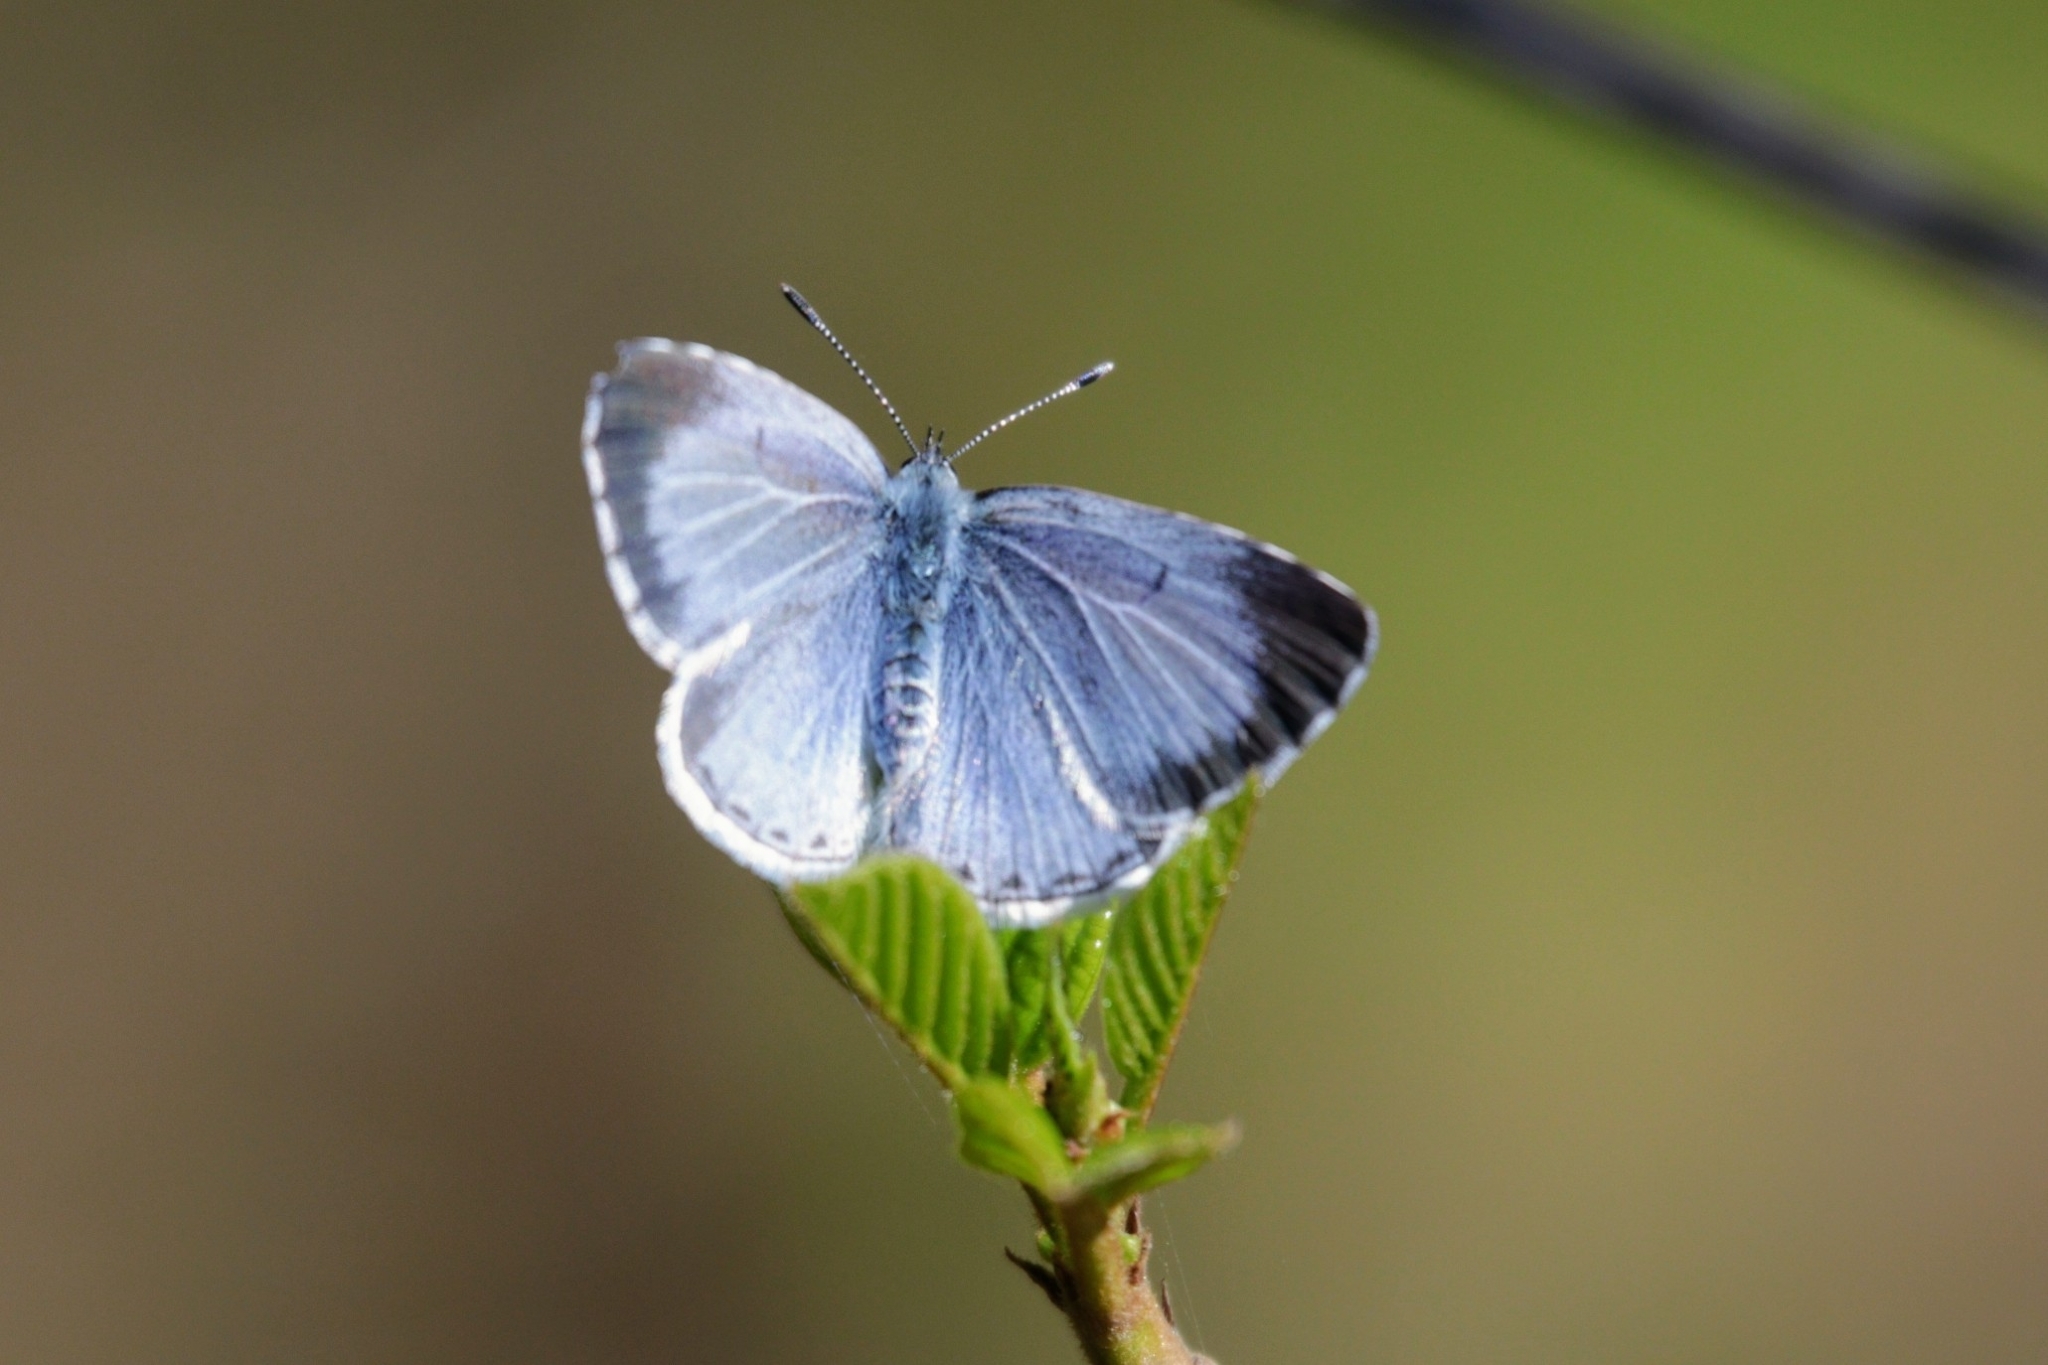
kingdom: Animalia
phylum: Arthropoda
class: Insecta
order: Lepidoptera
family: Lycaenidae
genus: Celastrina
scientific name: Celastrina argiolus
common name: Holly blue
